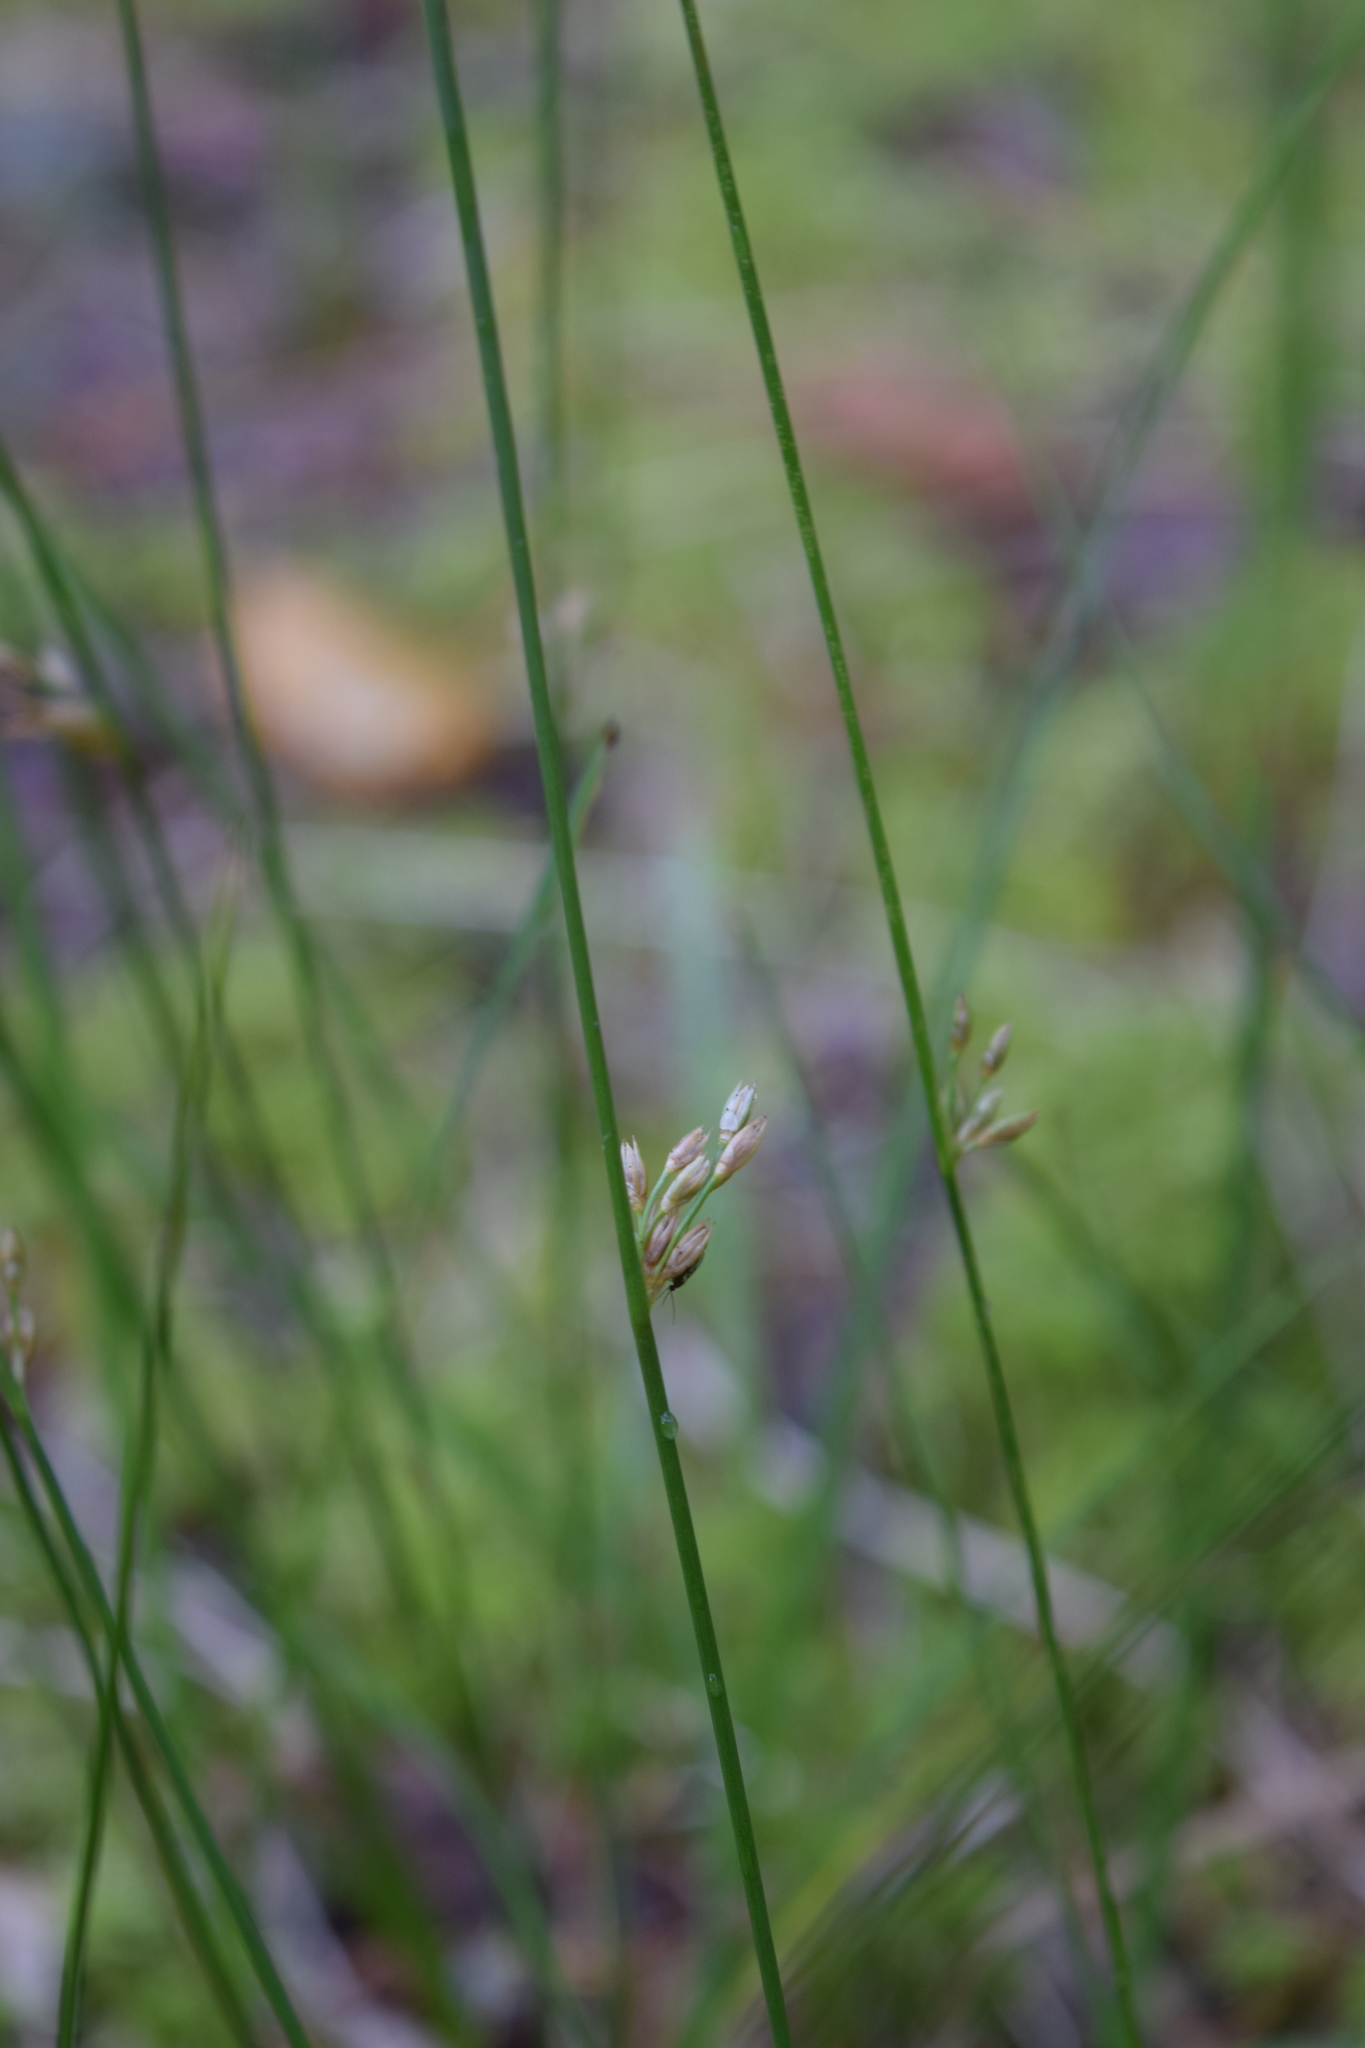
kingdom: Plantae
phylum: Tracheophyta
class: Liliopsida
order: Poales
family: Juncaceae
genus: Juncus
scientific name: Juncus filiformis
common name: Thread rush
